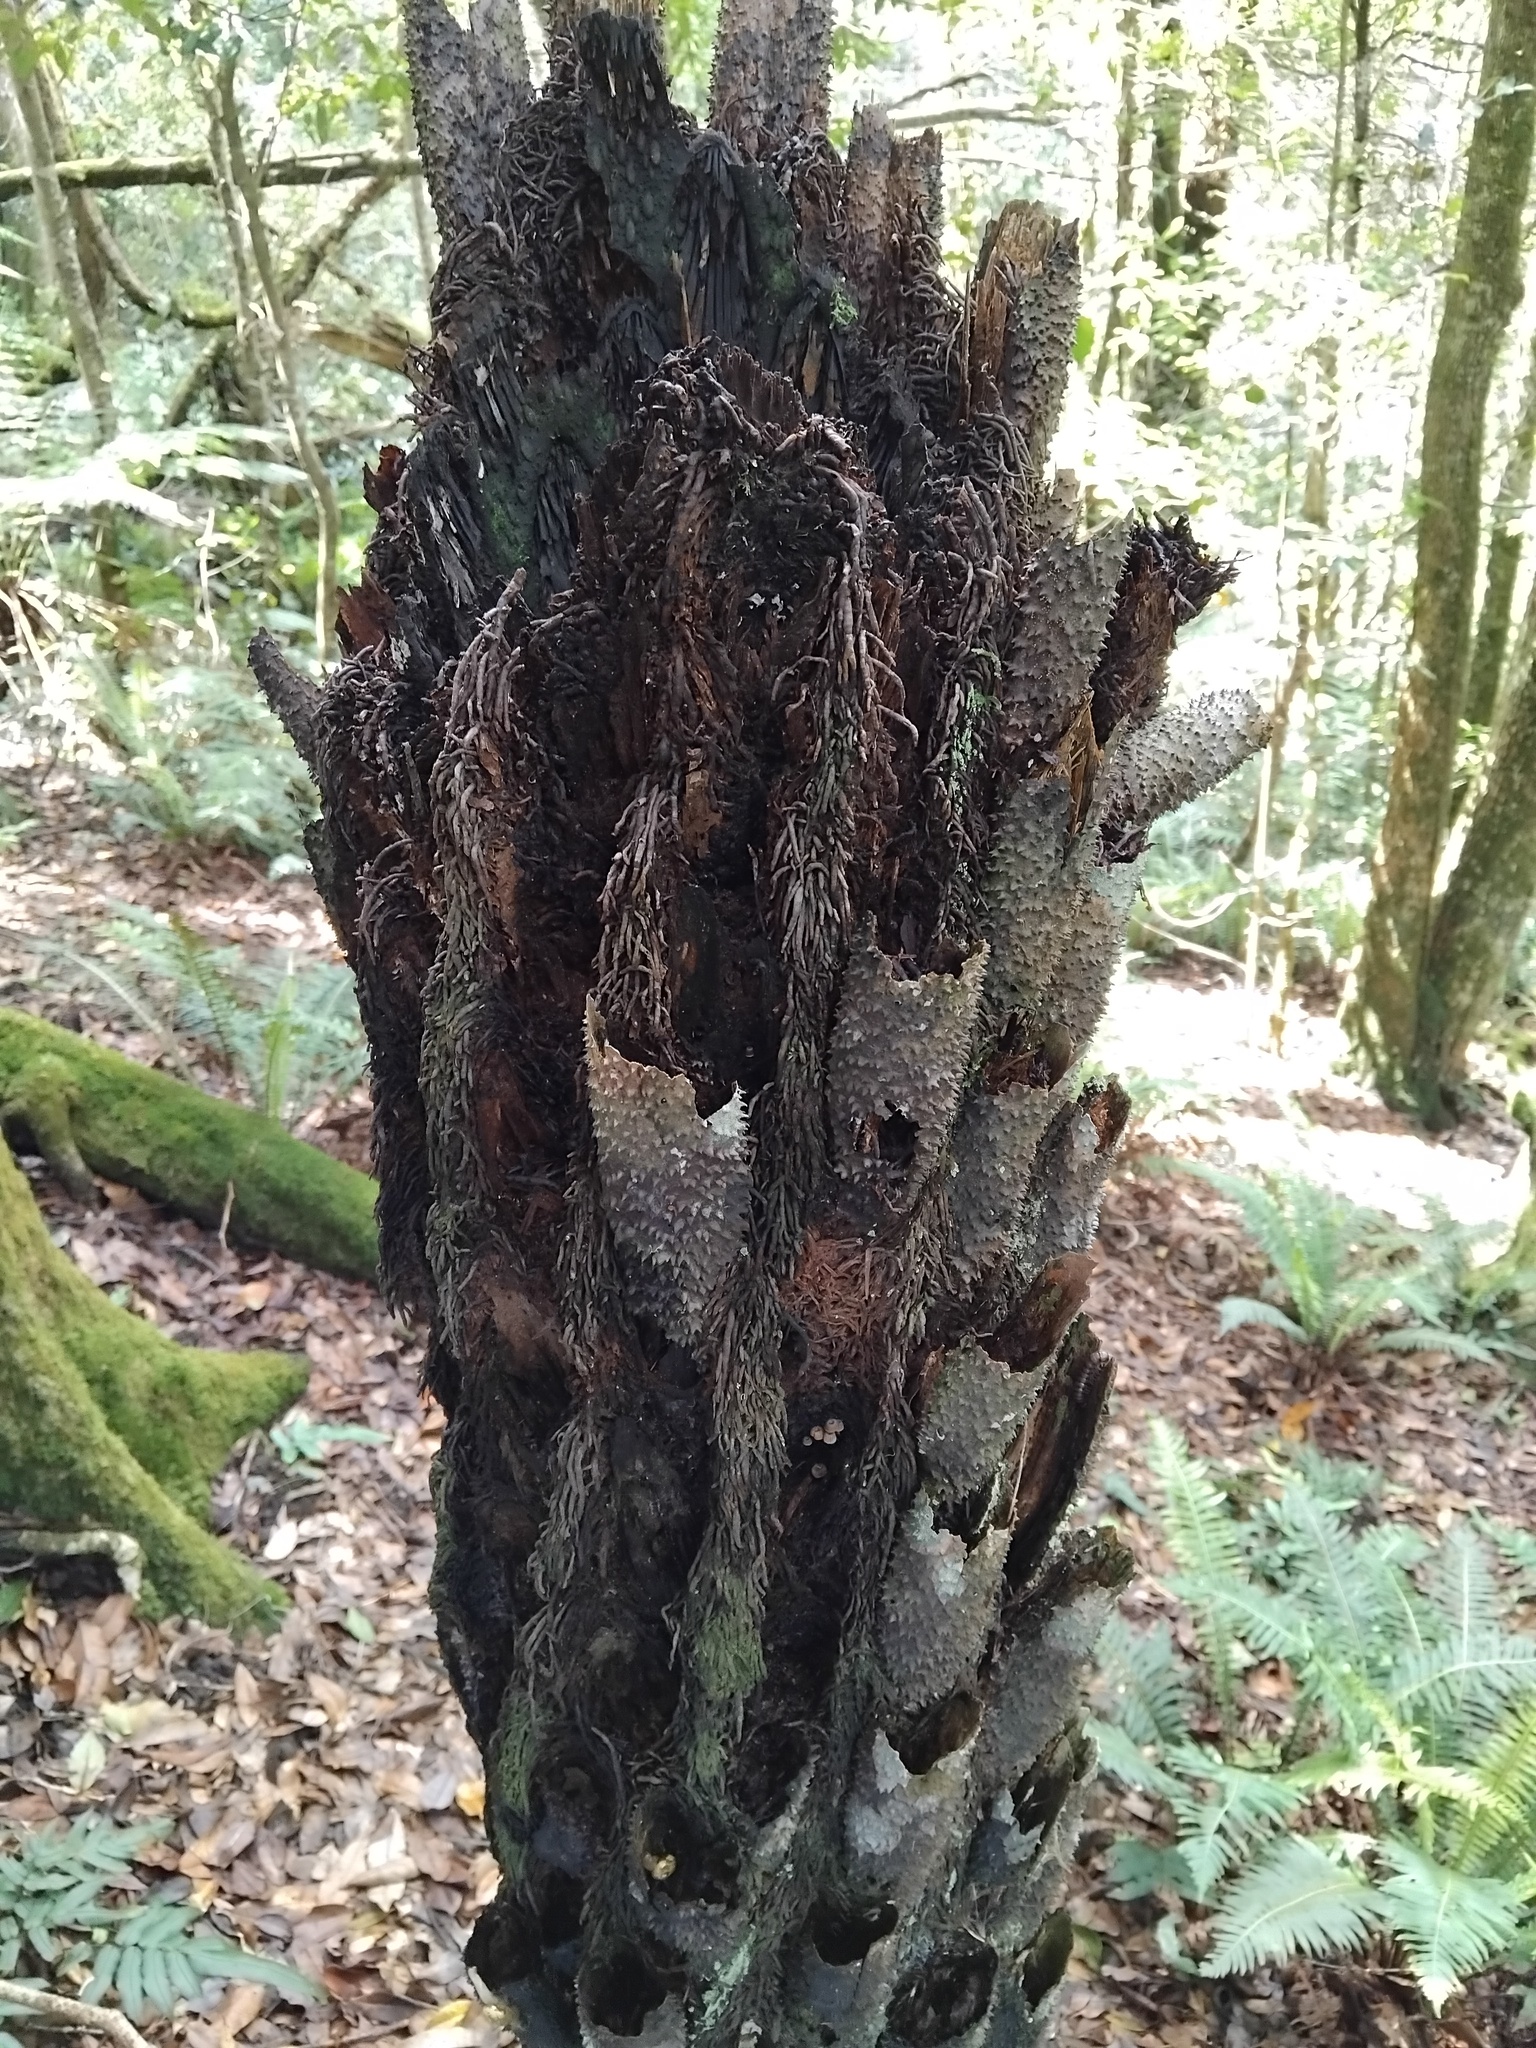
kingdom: Fungi
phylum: Basidiomycota
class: Agaricomycetes
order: Agaricales
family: Mycenaceae
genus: Mycena
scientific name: Mycena mamaku
